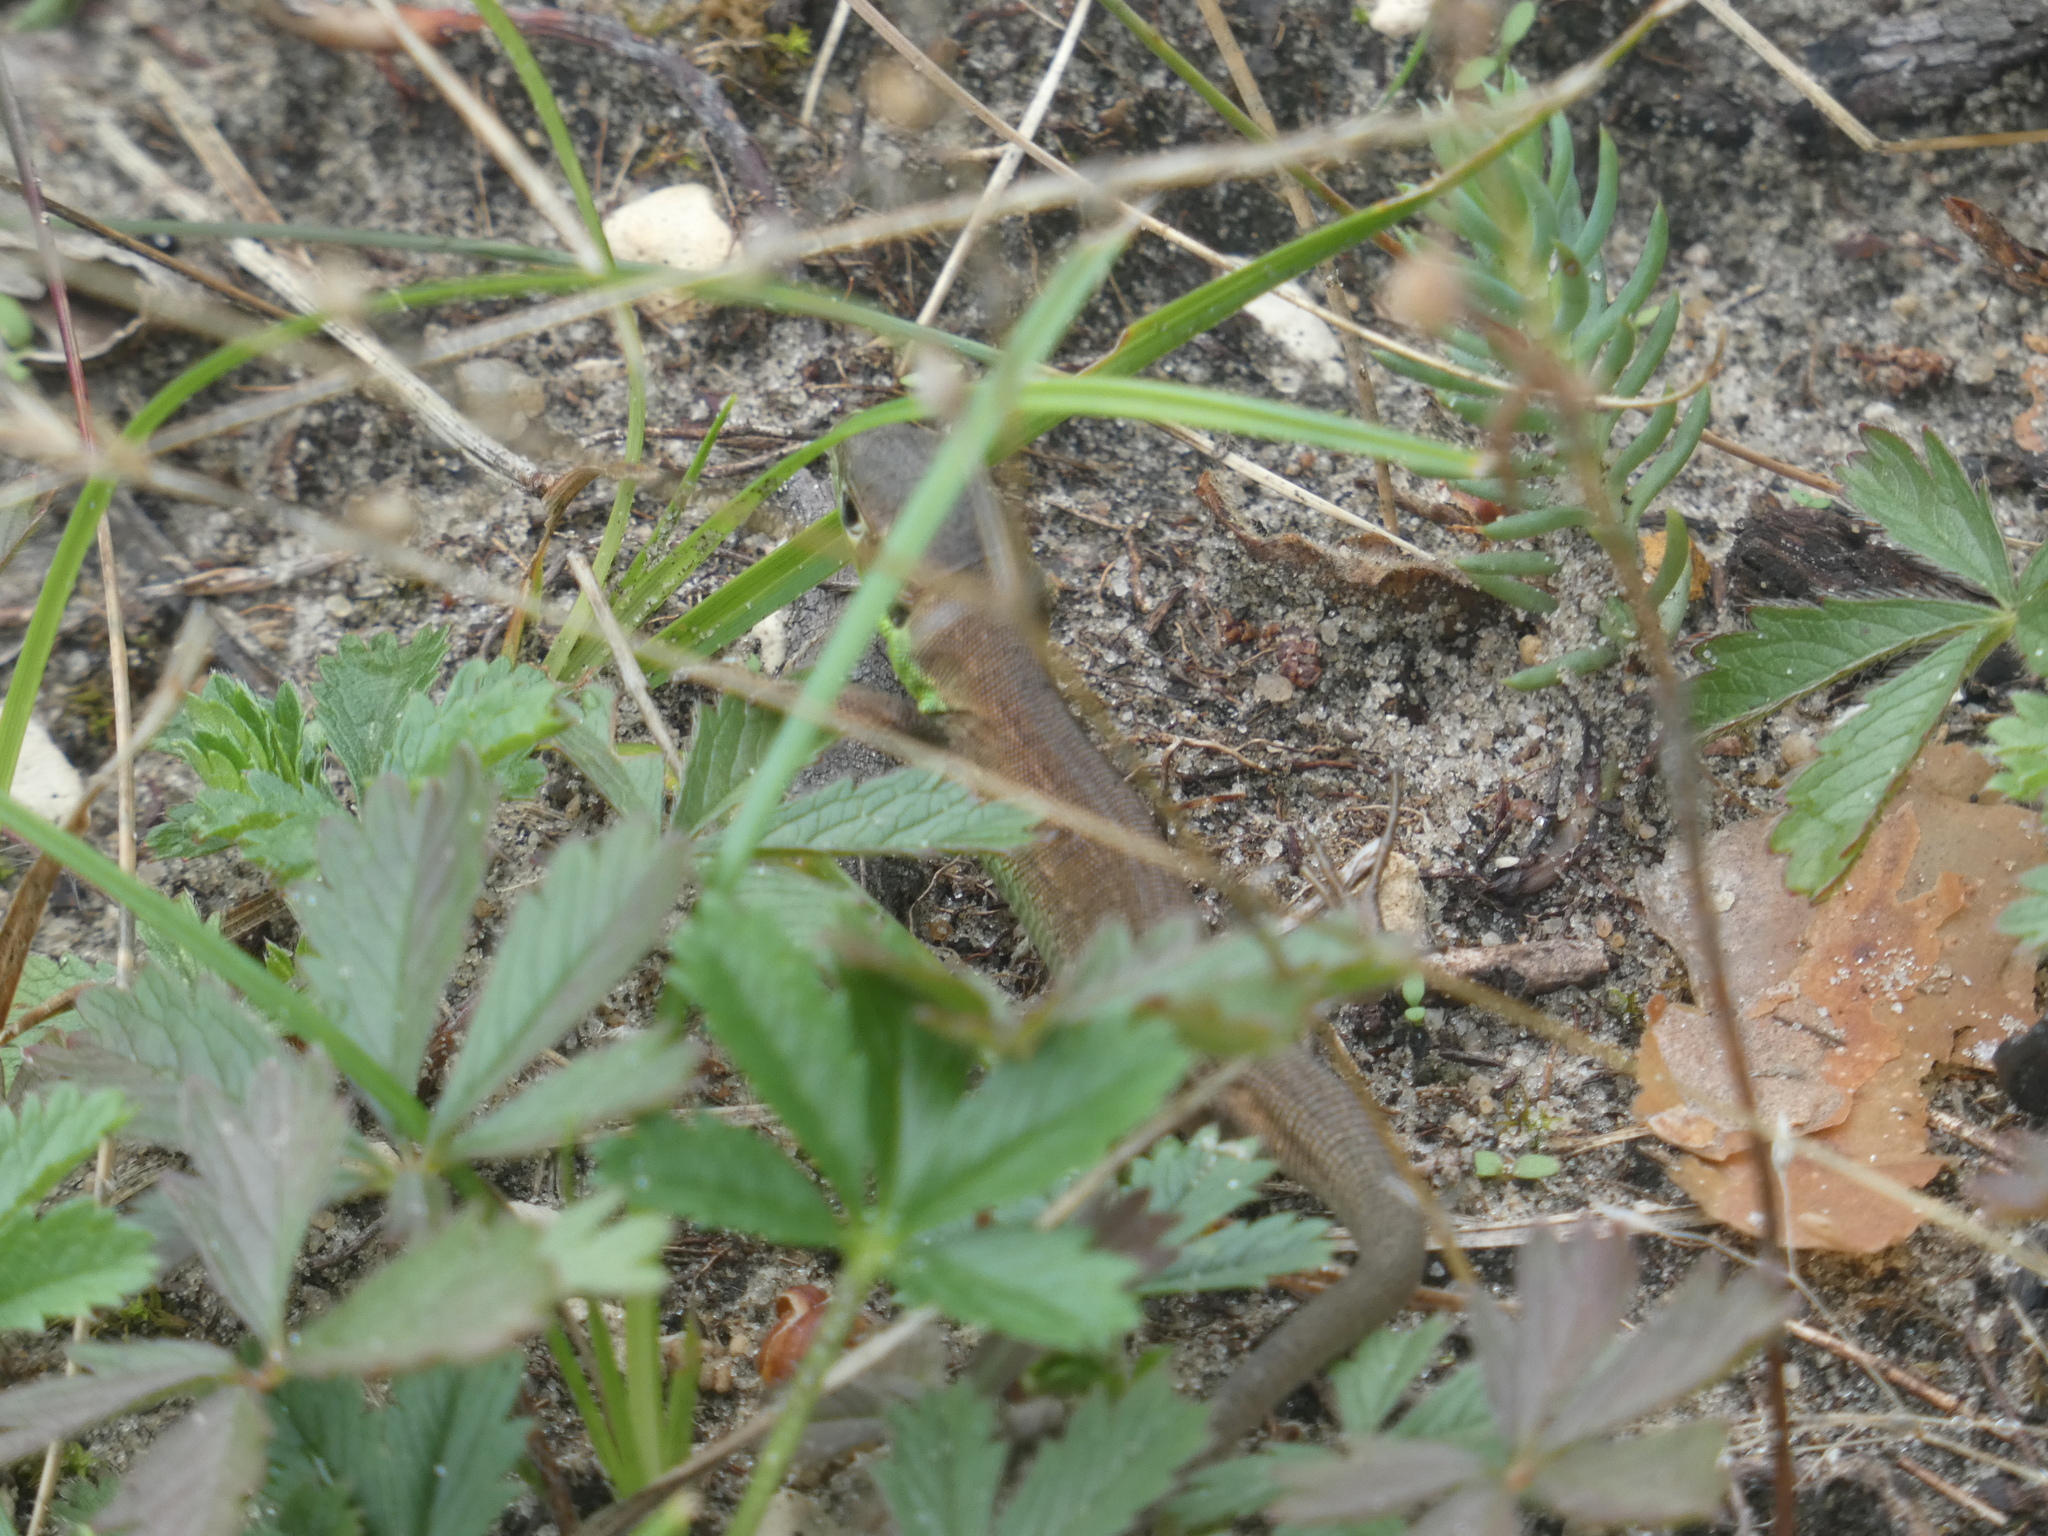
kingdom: Animalia
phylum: Chordata
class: Squamata
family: Lacertidae
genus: Lacerta
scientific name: Lacerta bilineata
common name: Western green lizard
